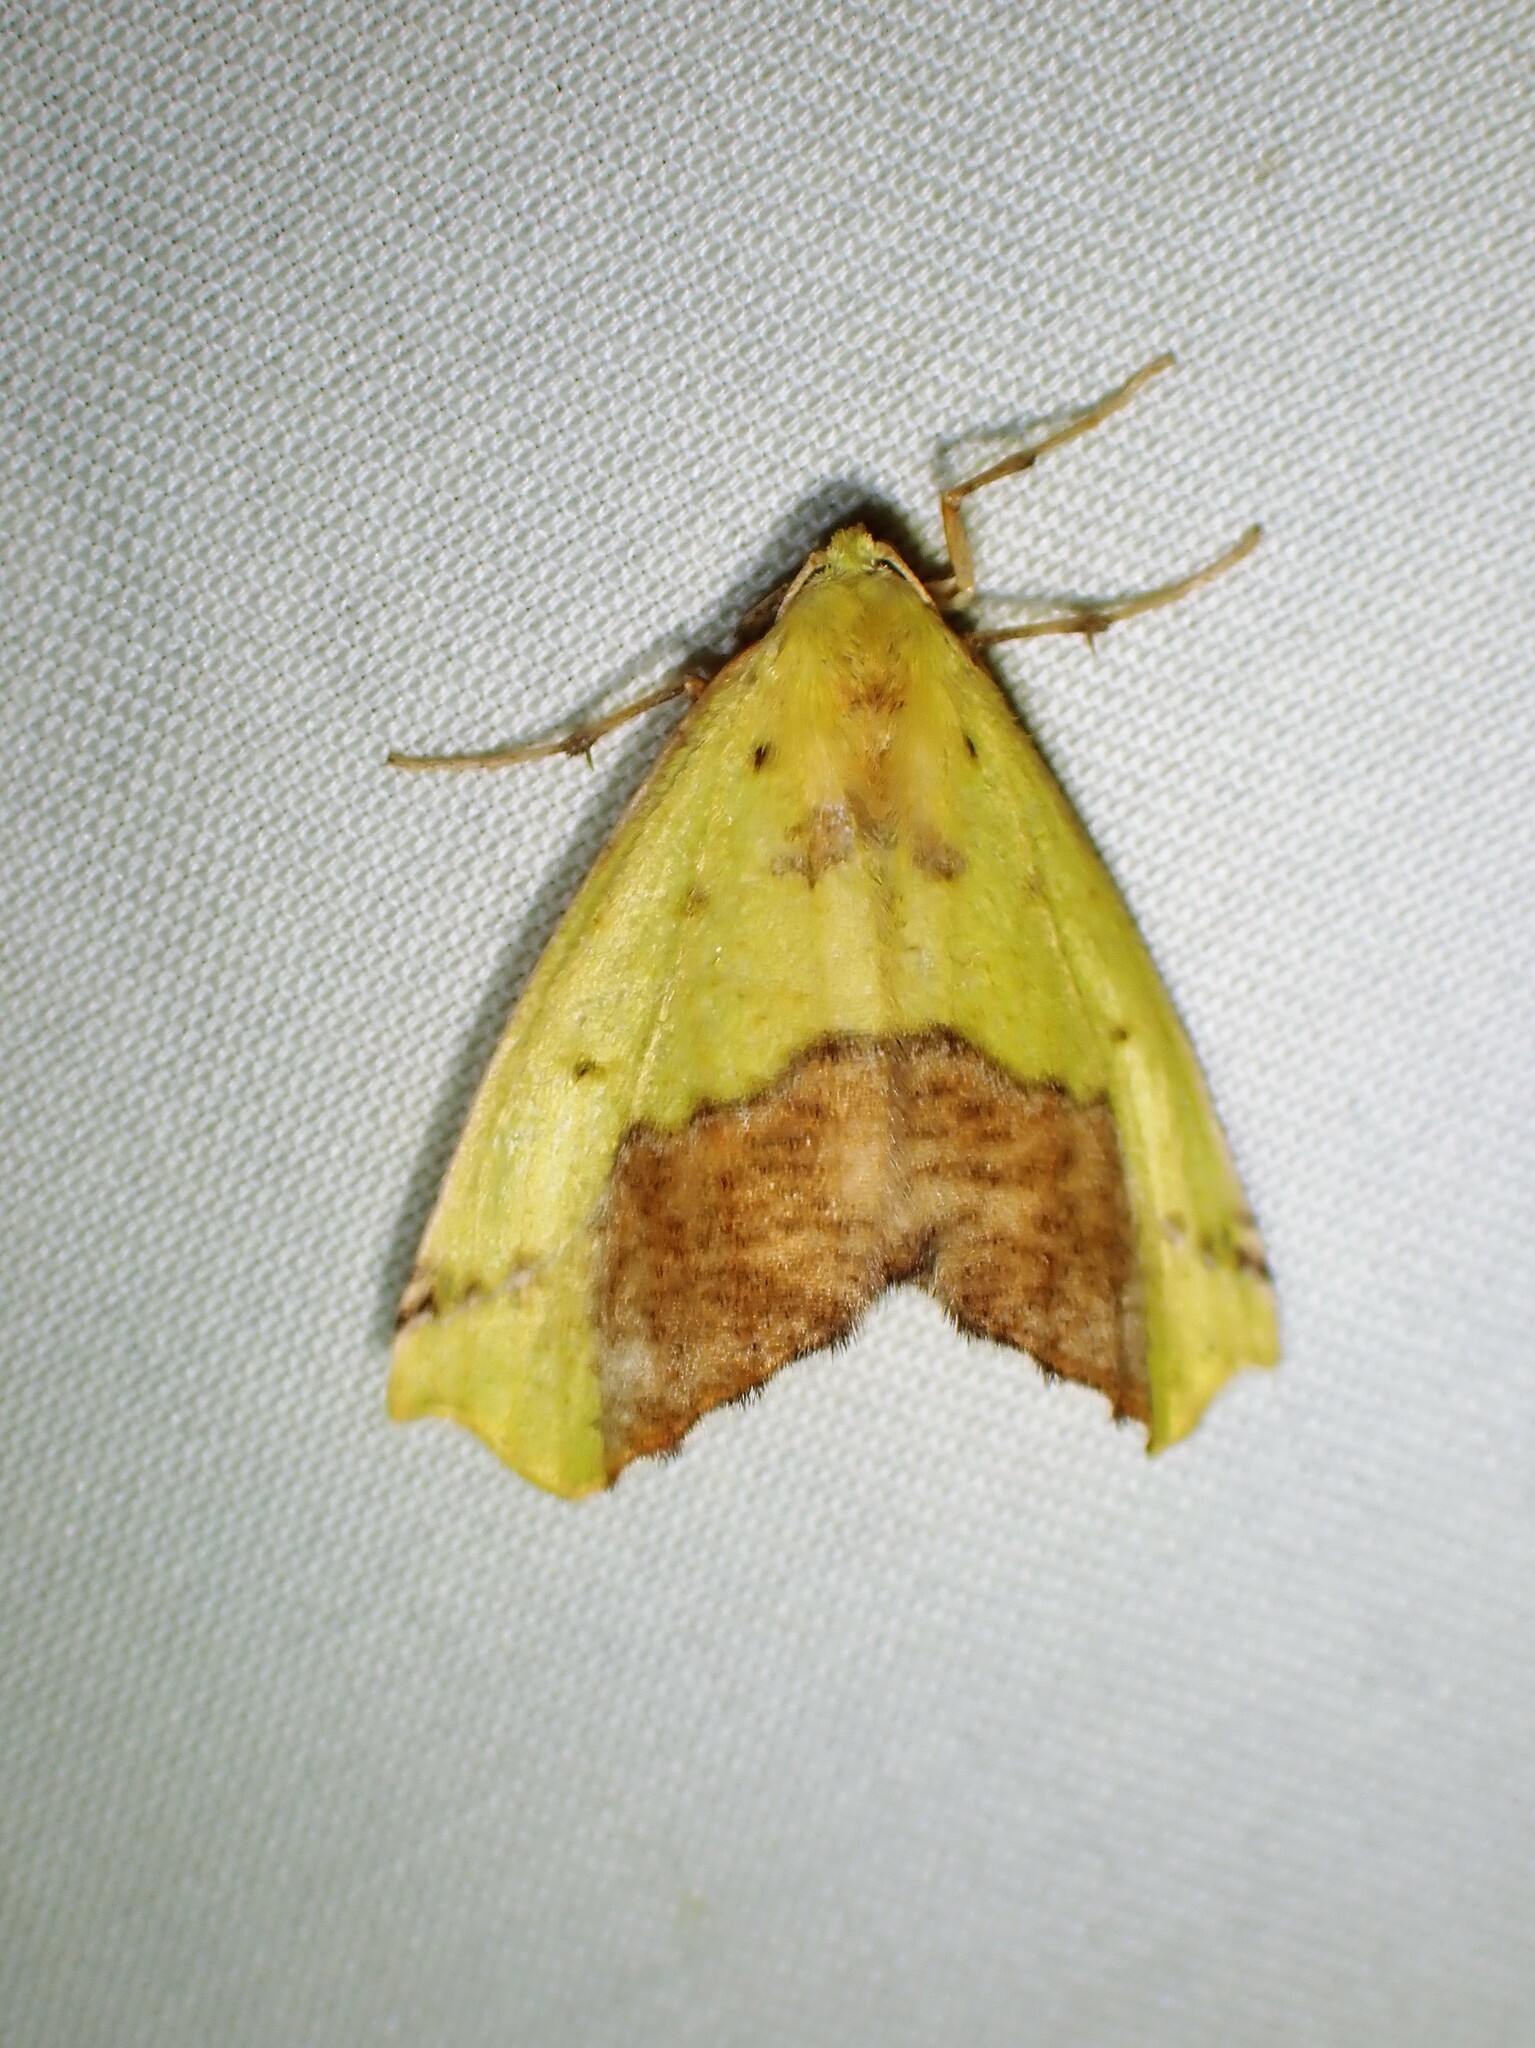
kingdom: Animalia
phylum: Arthropoda
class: Insecta
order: Lepidoptera
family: Geometridae
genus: Sicya
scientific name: Sicya macularia
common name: Sharp-lined yellow
